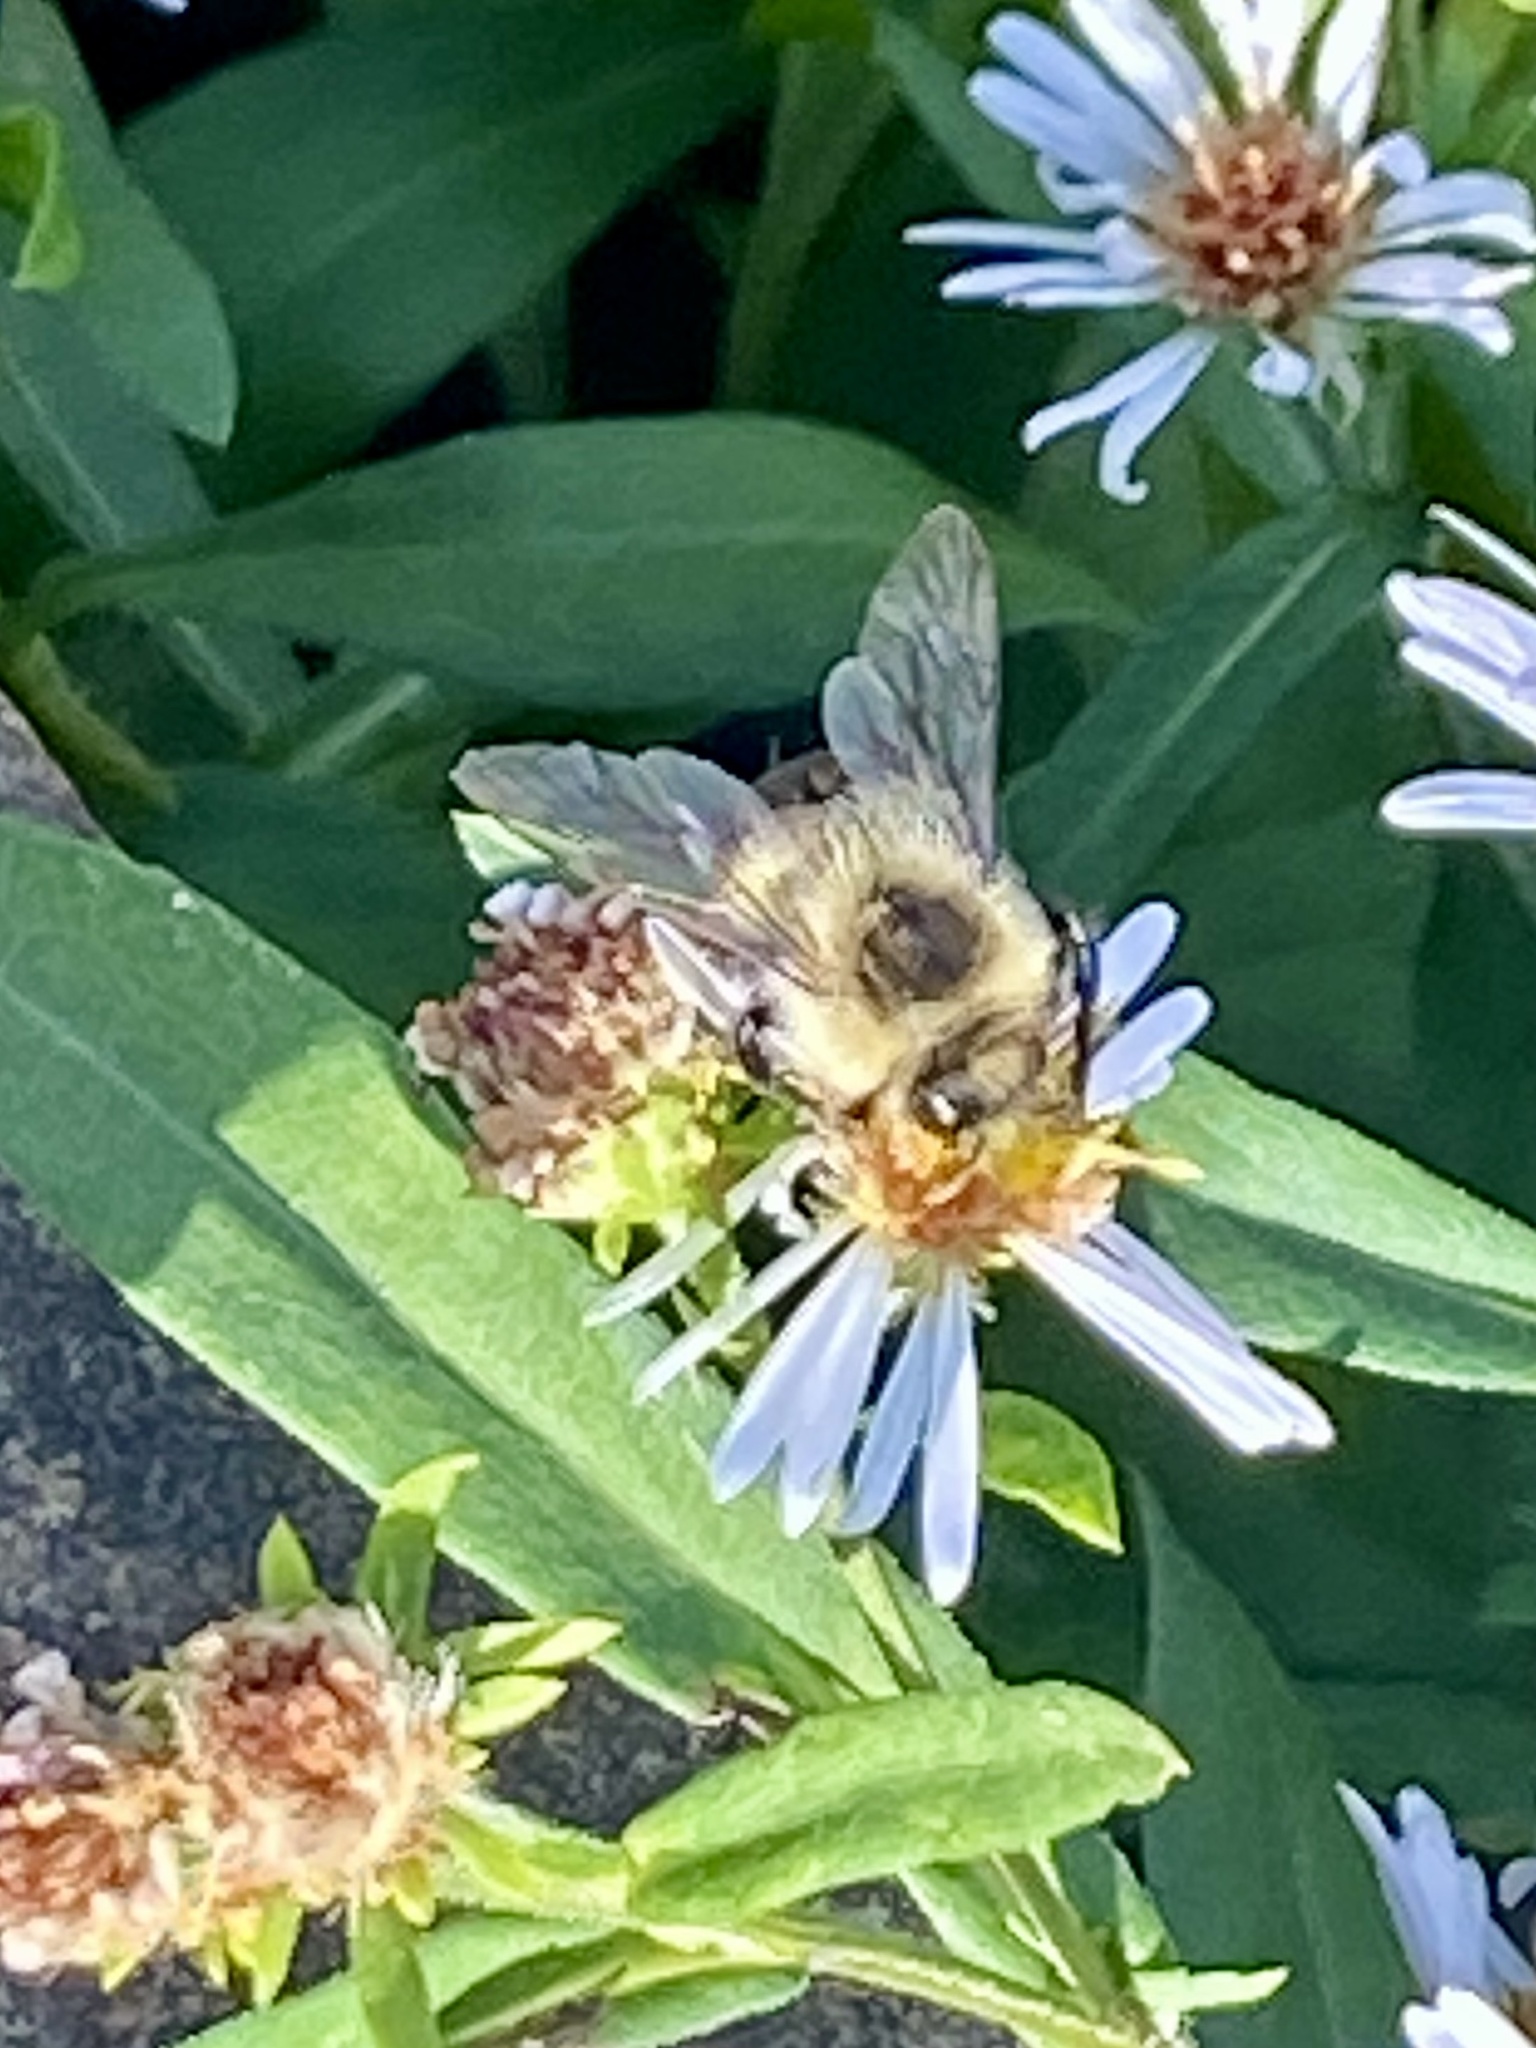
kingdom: Animalia
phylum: Arthropoda
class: Insecta
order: Hymenoptera
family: Apidae
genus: Bombus
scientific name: Bombus impatiens
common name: Common eastern bumble bee
